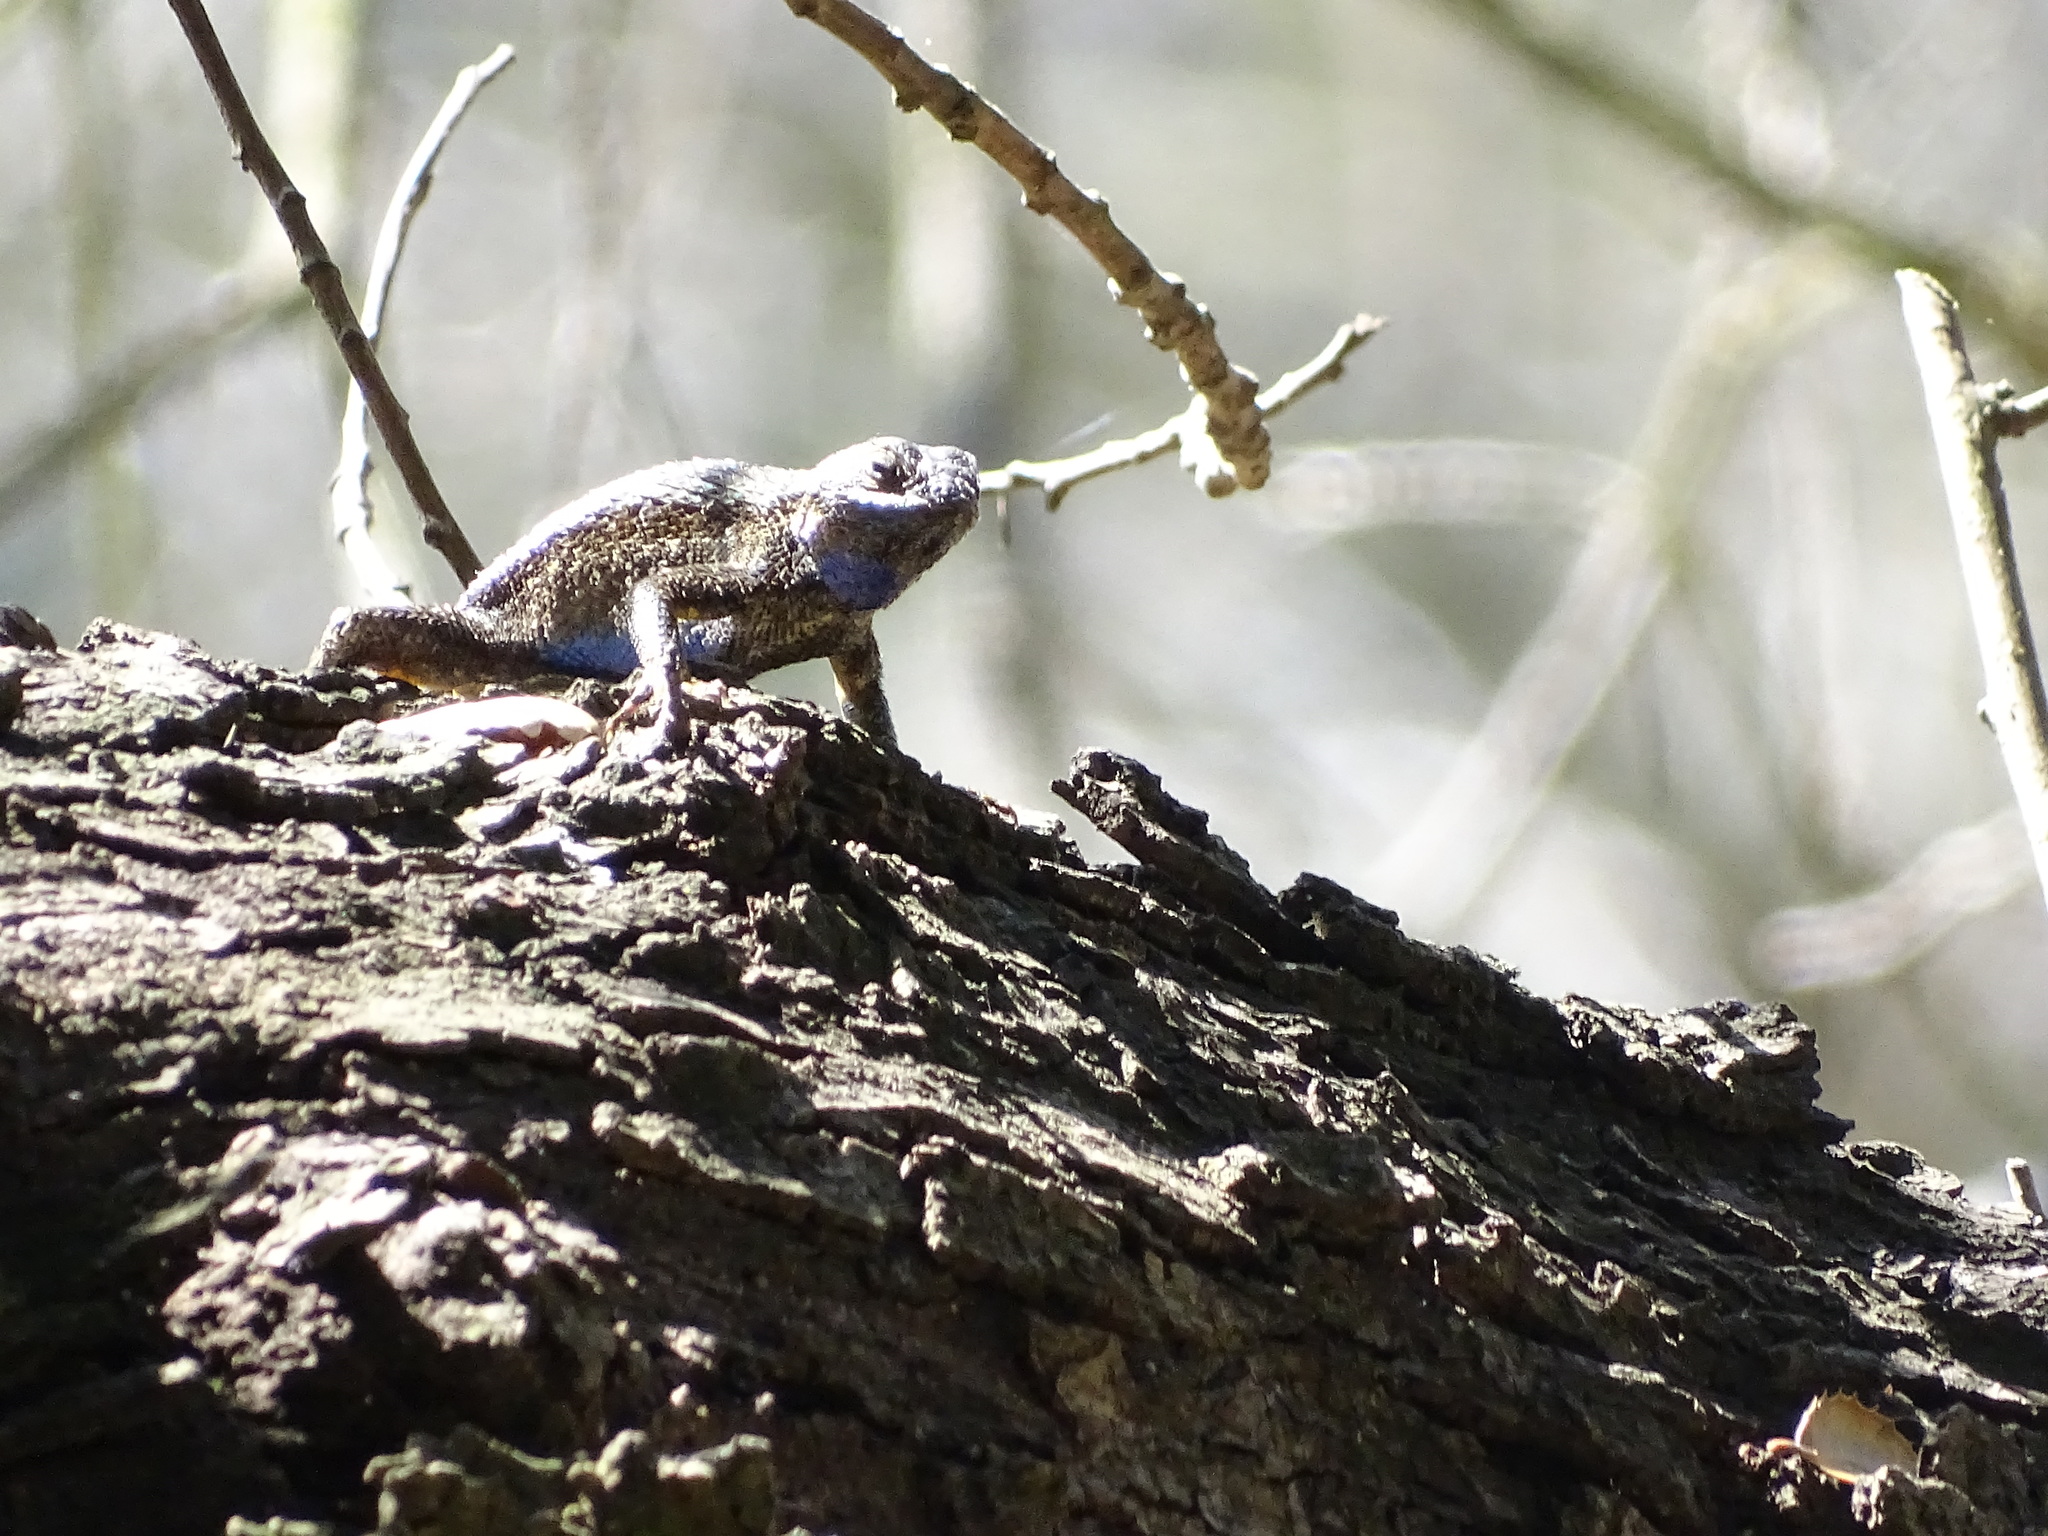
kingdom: Animalia
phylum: Chordata
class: Squamata
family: Phrynosomatidae
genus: Sceloporus
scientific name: Sceloporus occidentalis
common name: Western fence lizard
